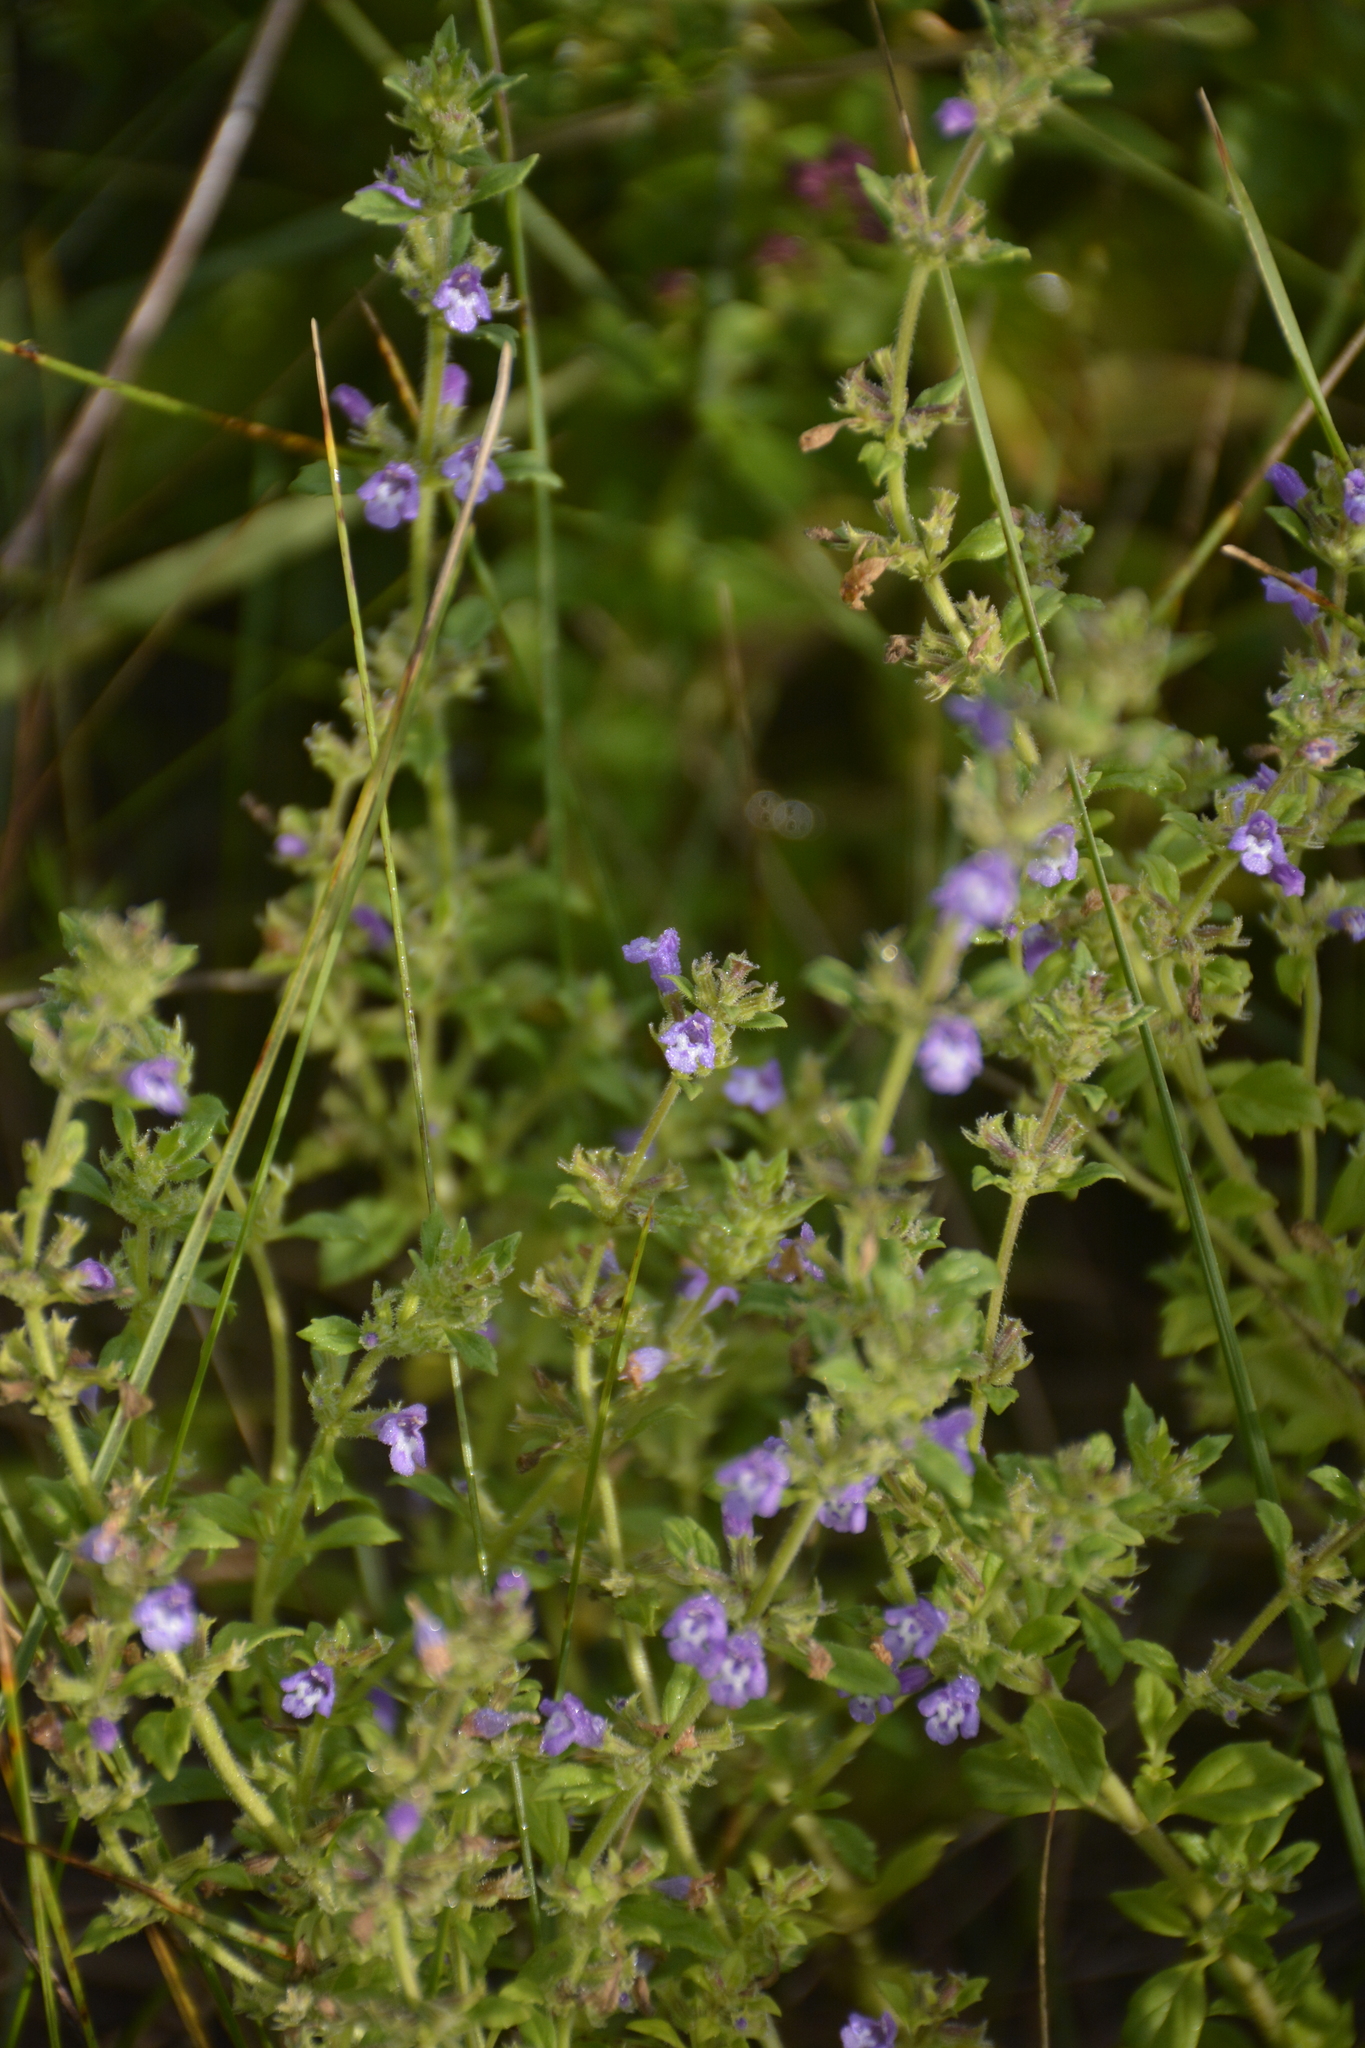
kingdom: Plantae
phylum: Tracheophyta
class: Magnoliopsida
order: Lamiales
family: Lamiaceae
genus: Clinopodium
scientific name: Clinopodium acinos
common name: Basil thyme
